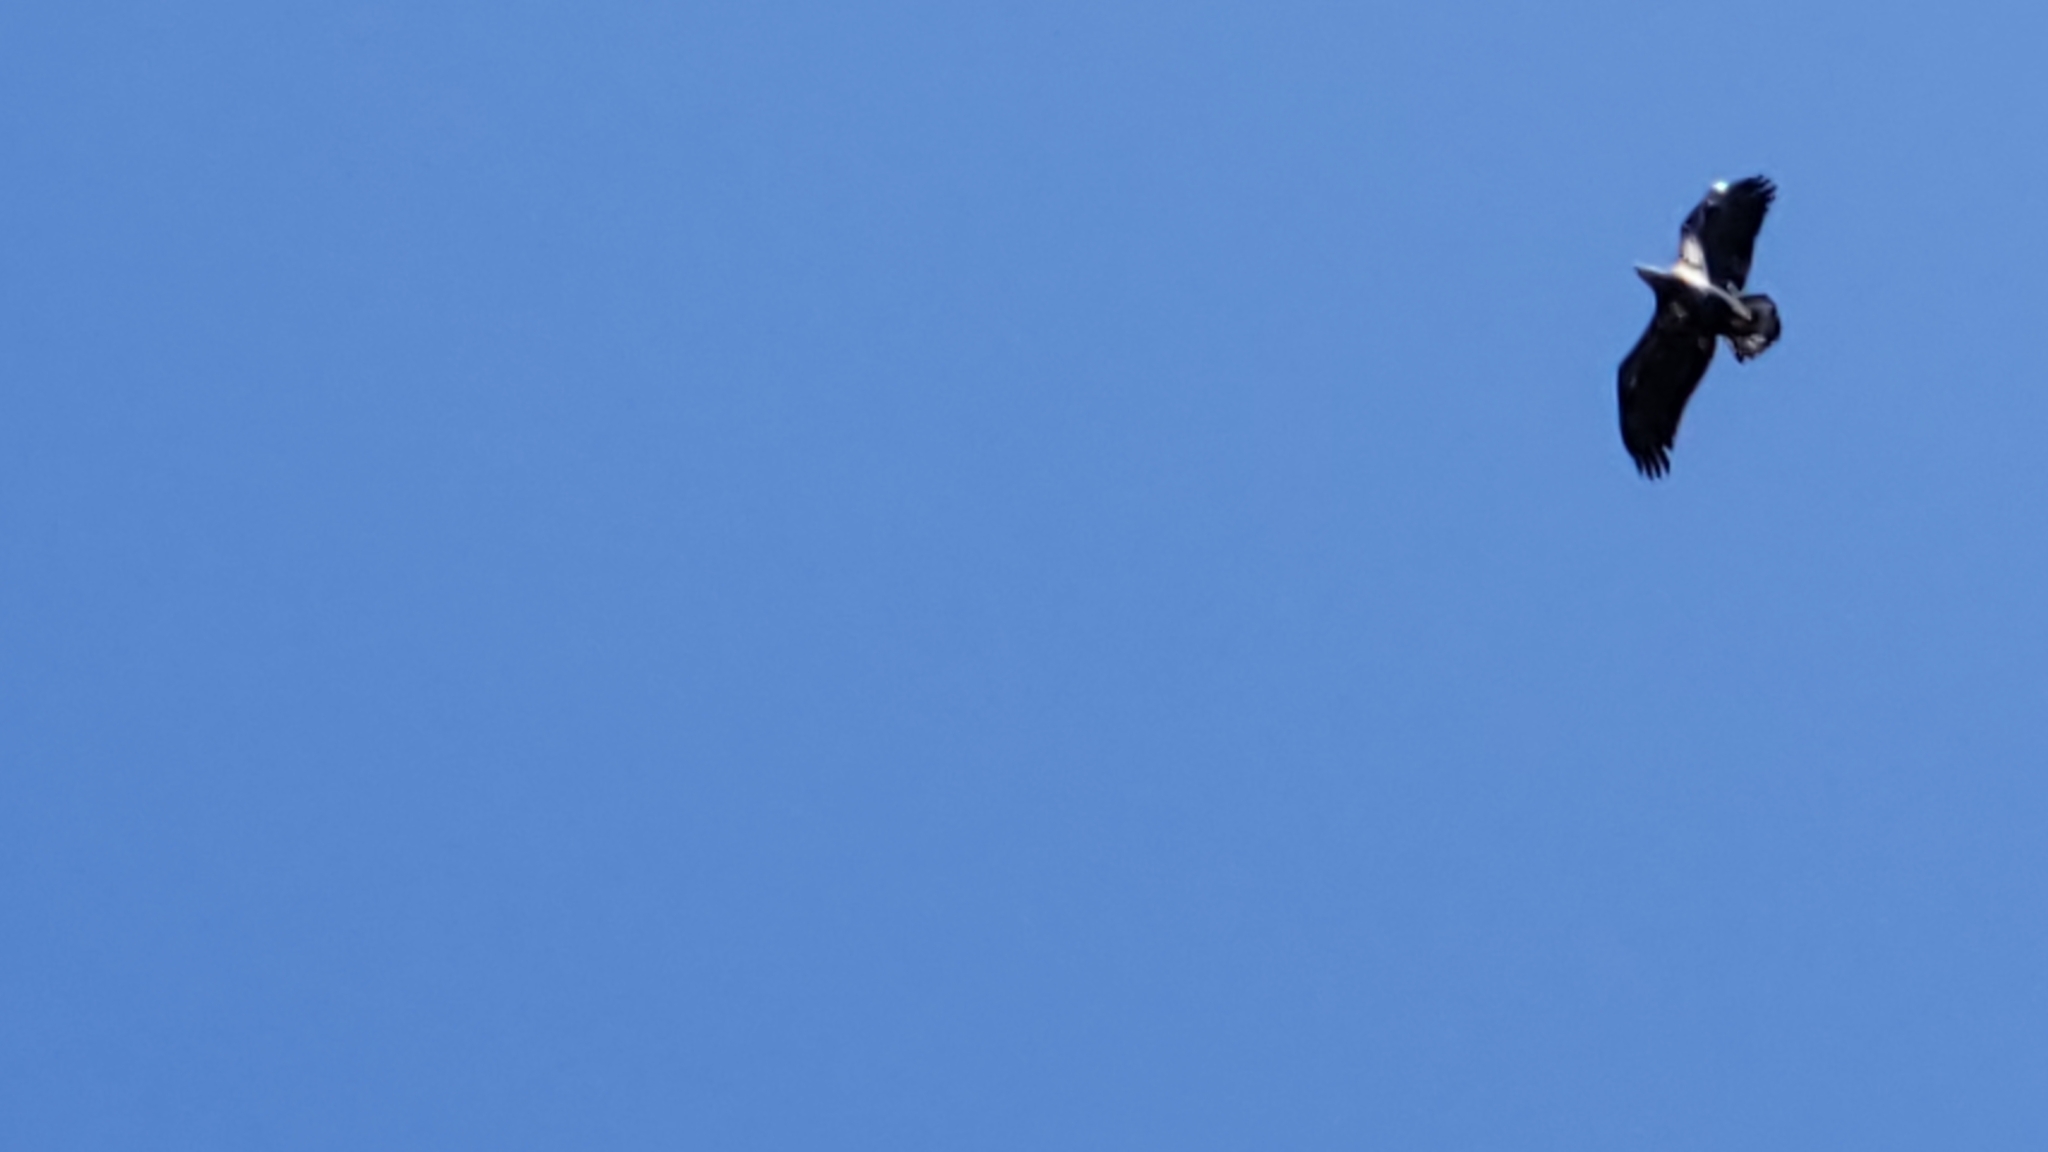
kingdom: Animalia
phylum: Chordata
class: Aves
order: Accipitriformes
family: Accipitridae
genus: Haliaeetus
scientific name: Haliaeetus leucocephalus
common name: Bald eagle
